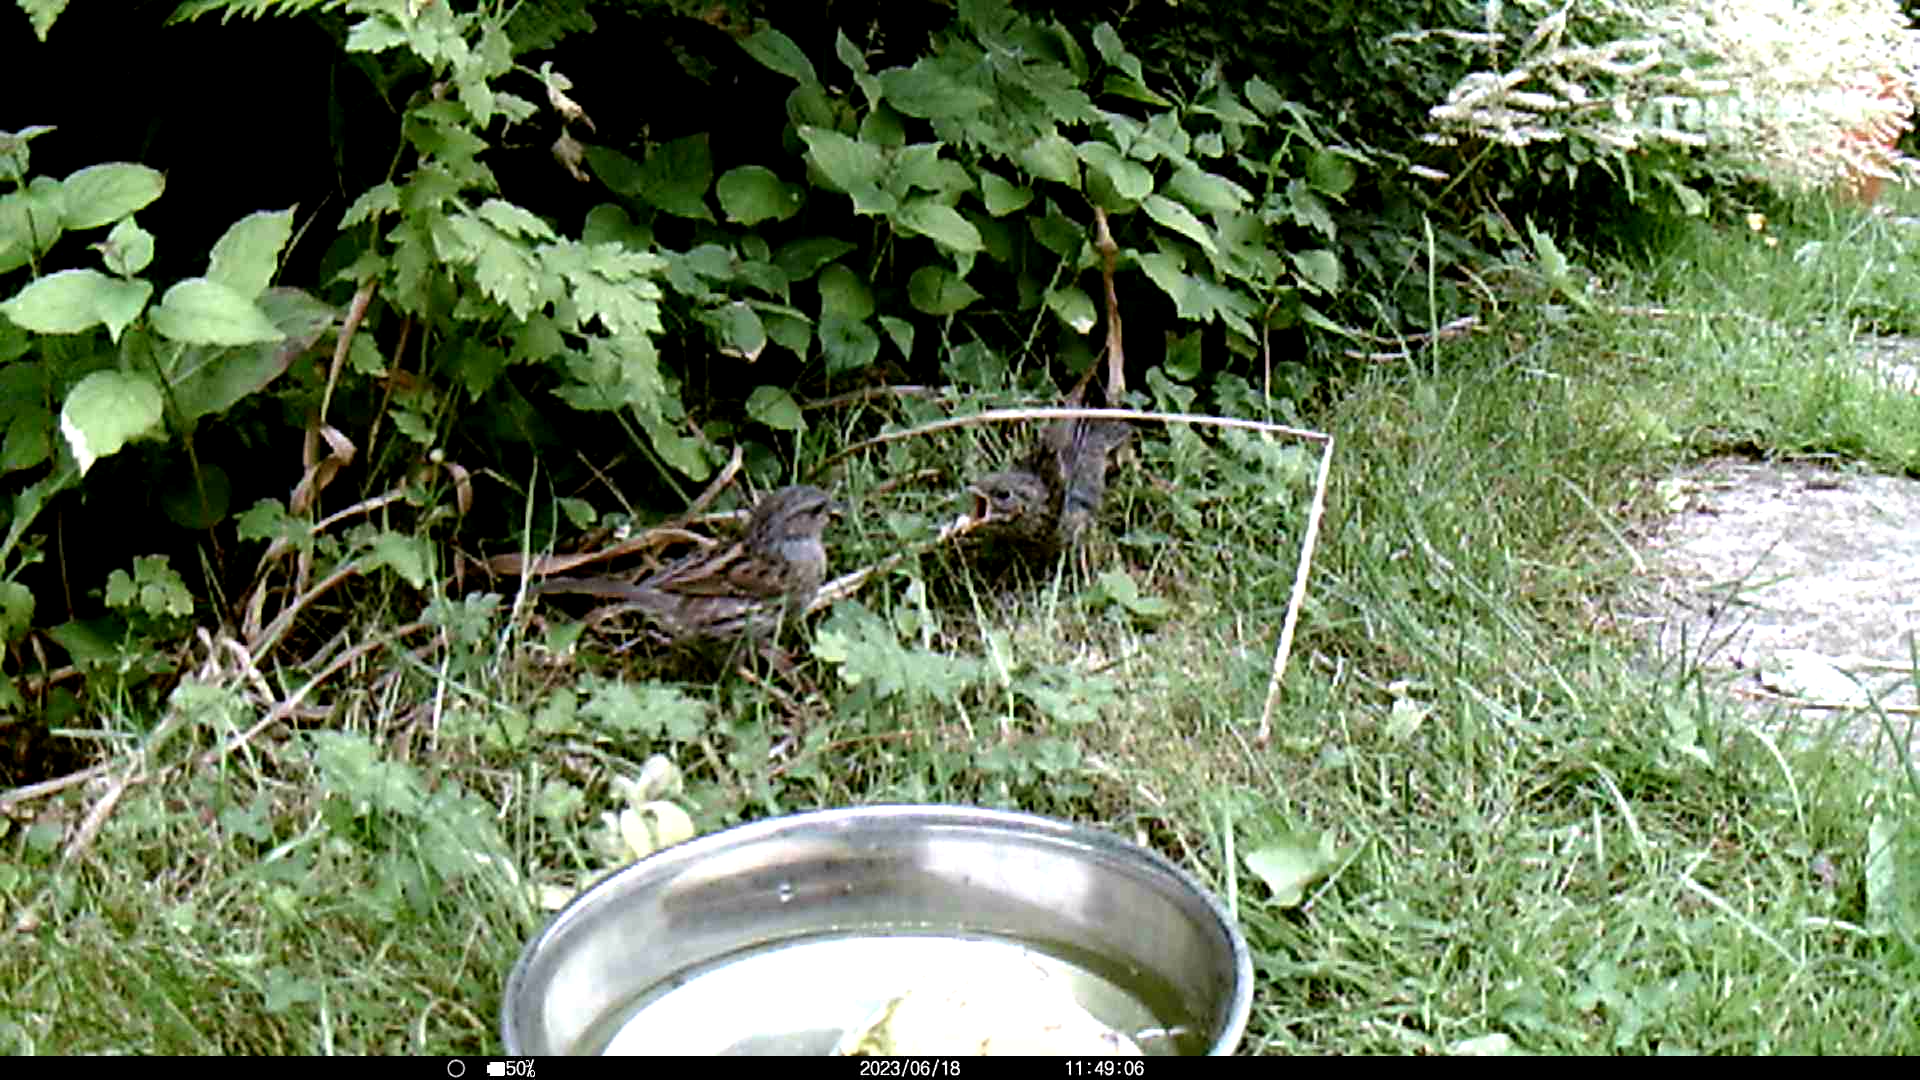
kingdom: Animalia
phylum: Chordata
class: Aves
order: Passeriformes
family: Prunellidae
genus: Prunella
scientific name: Prunella modularis
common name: Dunnock
